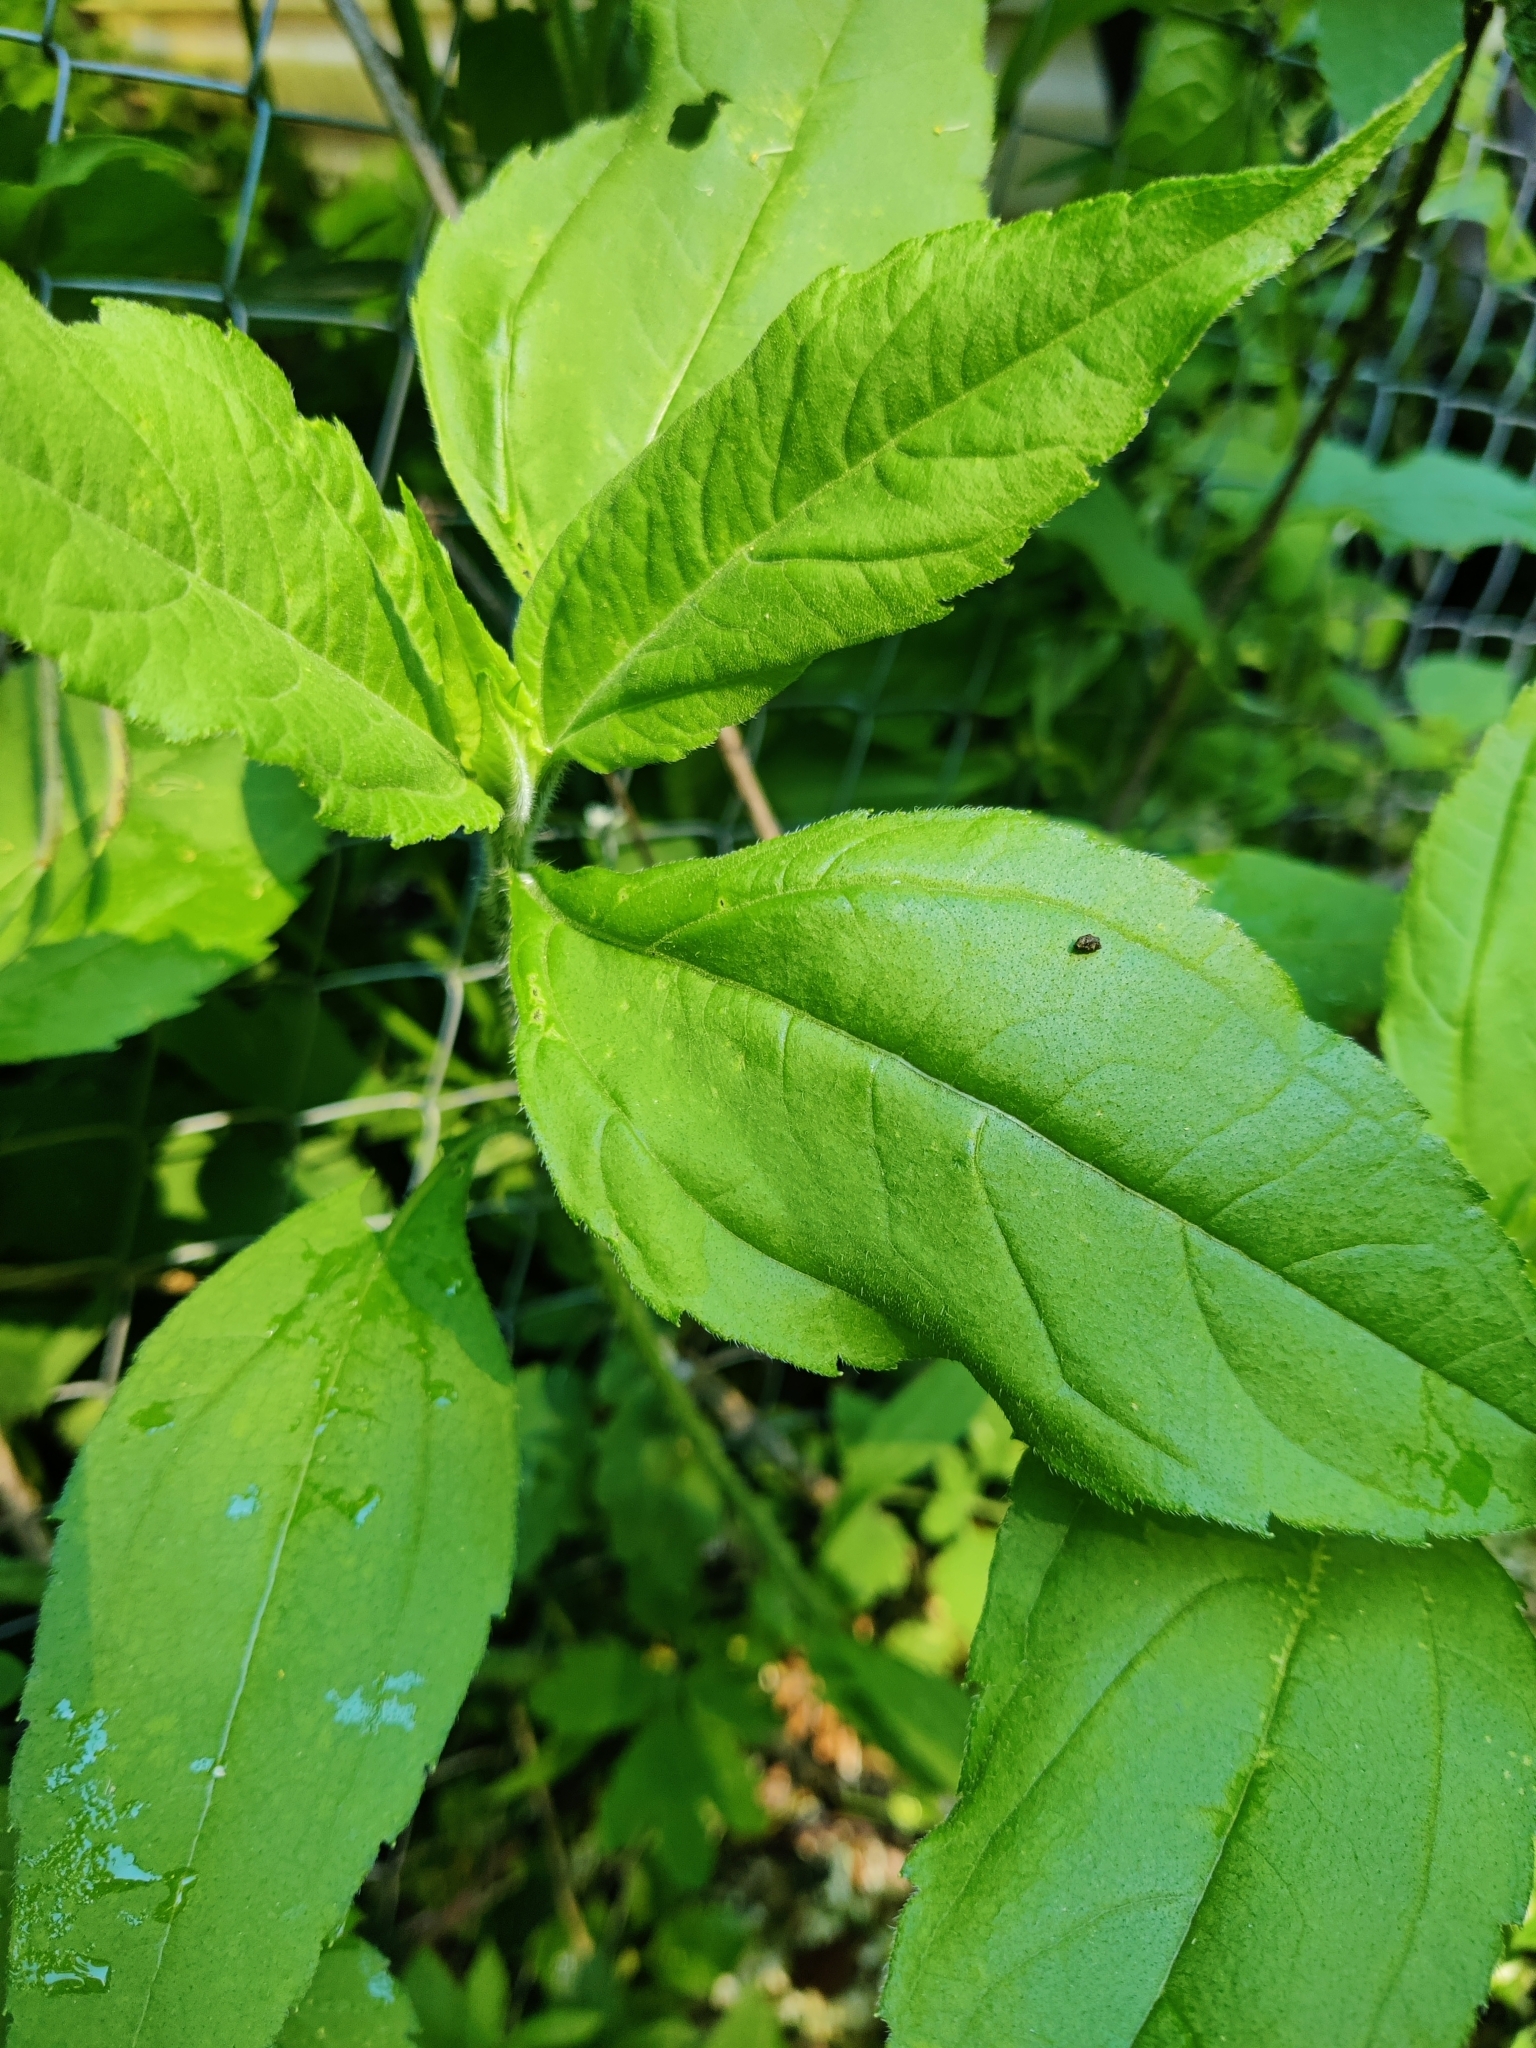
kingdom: Plantae
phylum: Tracheophyta
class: Magnoliopsida
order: Asterales
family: Asteraceae
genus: Helianthus
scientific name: Helianthus tuberosus
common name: Jerusalem artichoke
